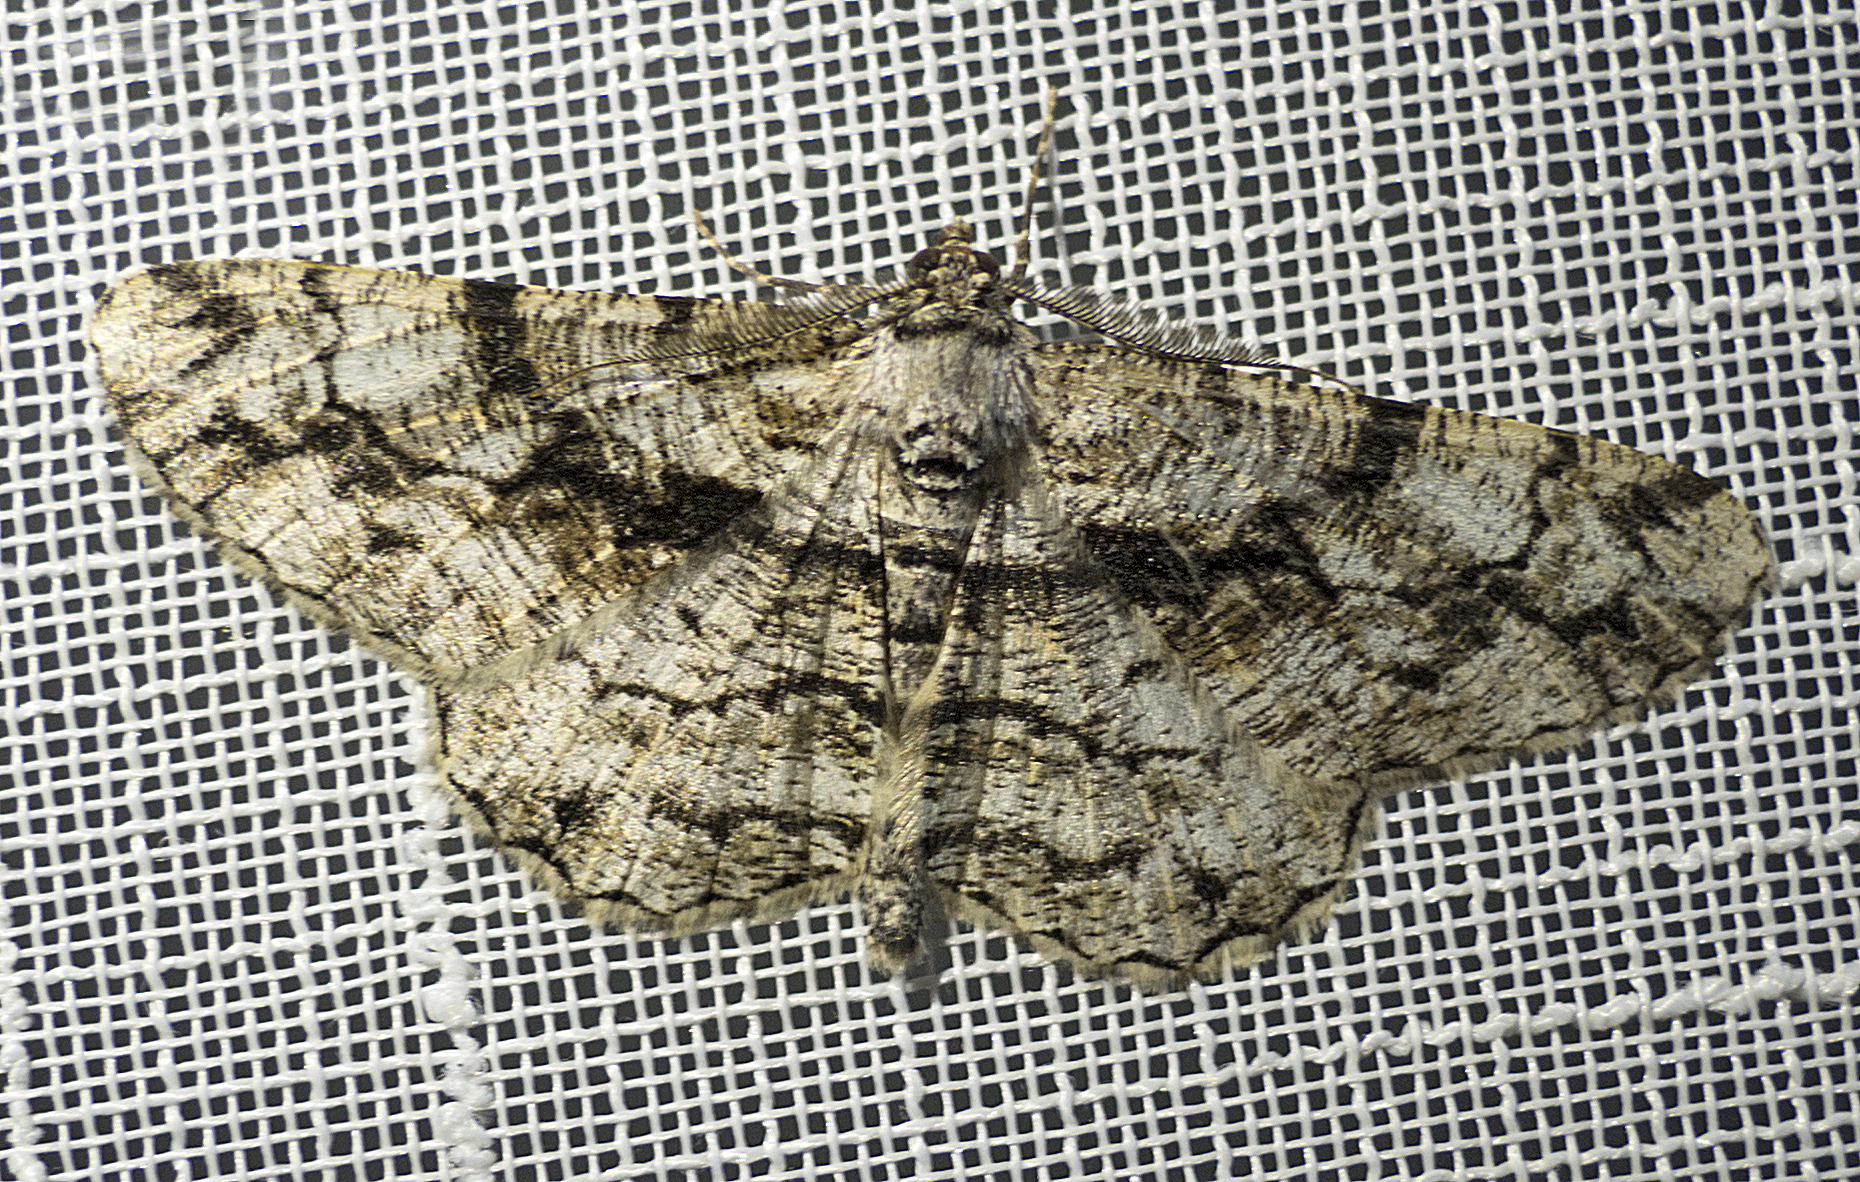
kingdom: Animalia
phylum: Arthropoda
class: Insecta
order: Lepidoptera
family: Geometridae
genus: Peribatodes
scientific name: Peribatodes umbraria
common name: Olive-tree beauty
